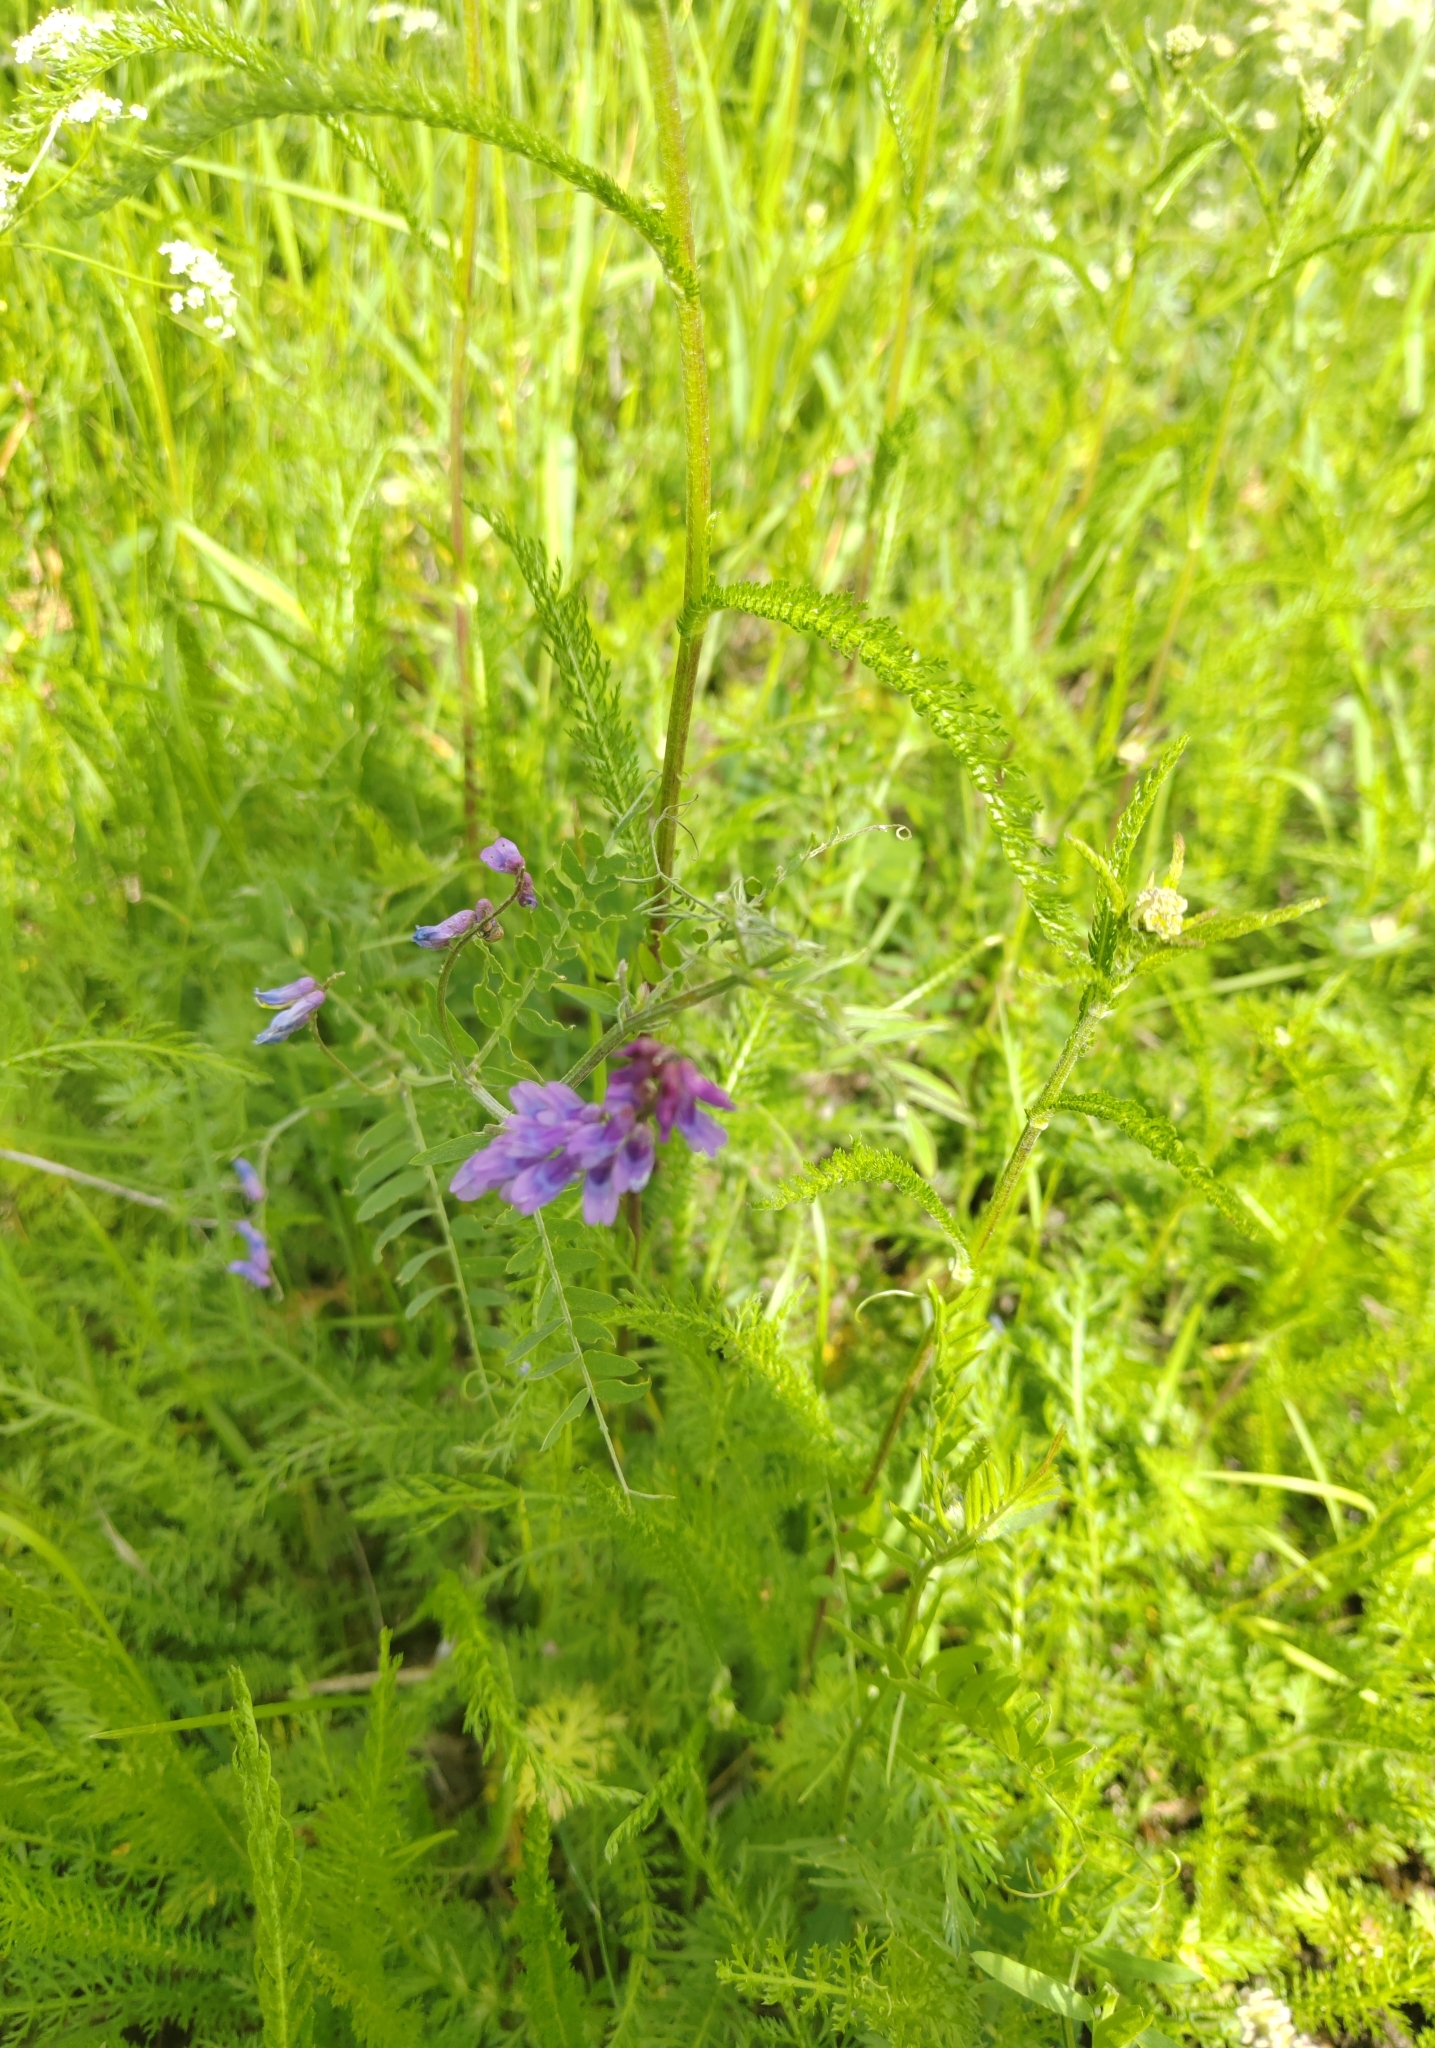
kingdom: Plantae
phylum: Tracheophyta
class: Magnoliopsida
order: Fabales
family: Fabaceae
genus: Vicia
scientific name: Vicia cracca
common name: Bird vetch
